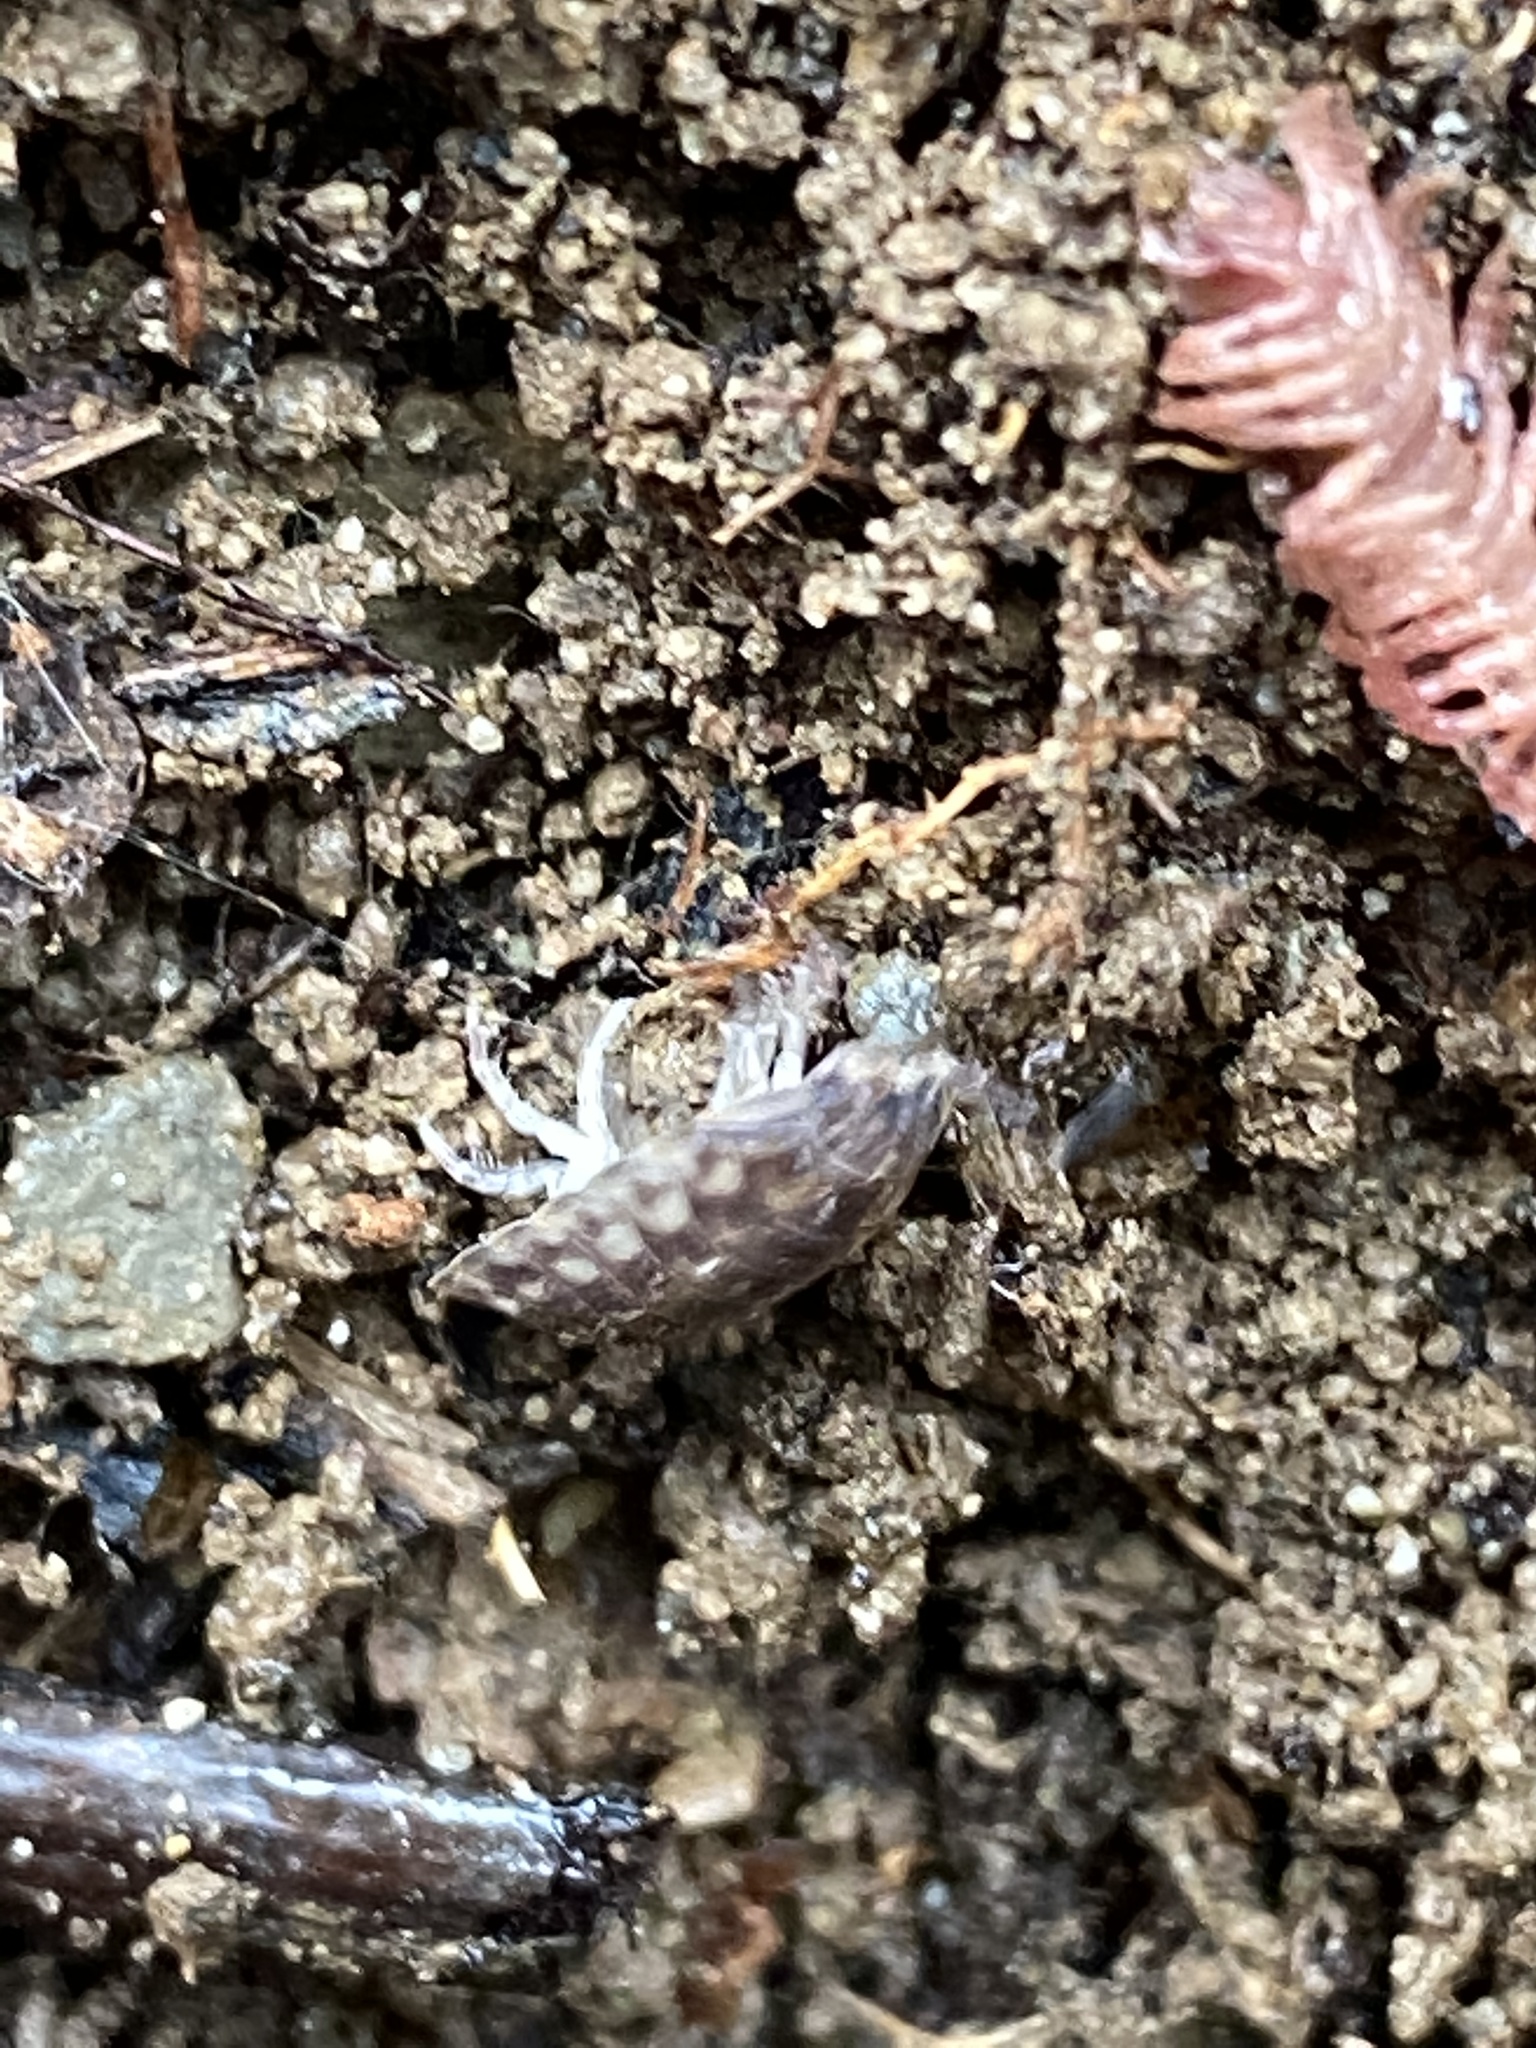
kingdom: Animalia
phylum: Arthropoda
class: Malacostraca
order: Isopoda
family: Oniscidae
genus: Oniscus
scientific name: Oniscus asellus
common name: Common shiny woodlouse
